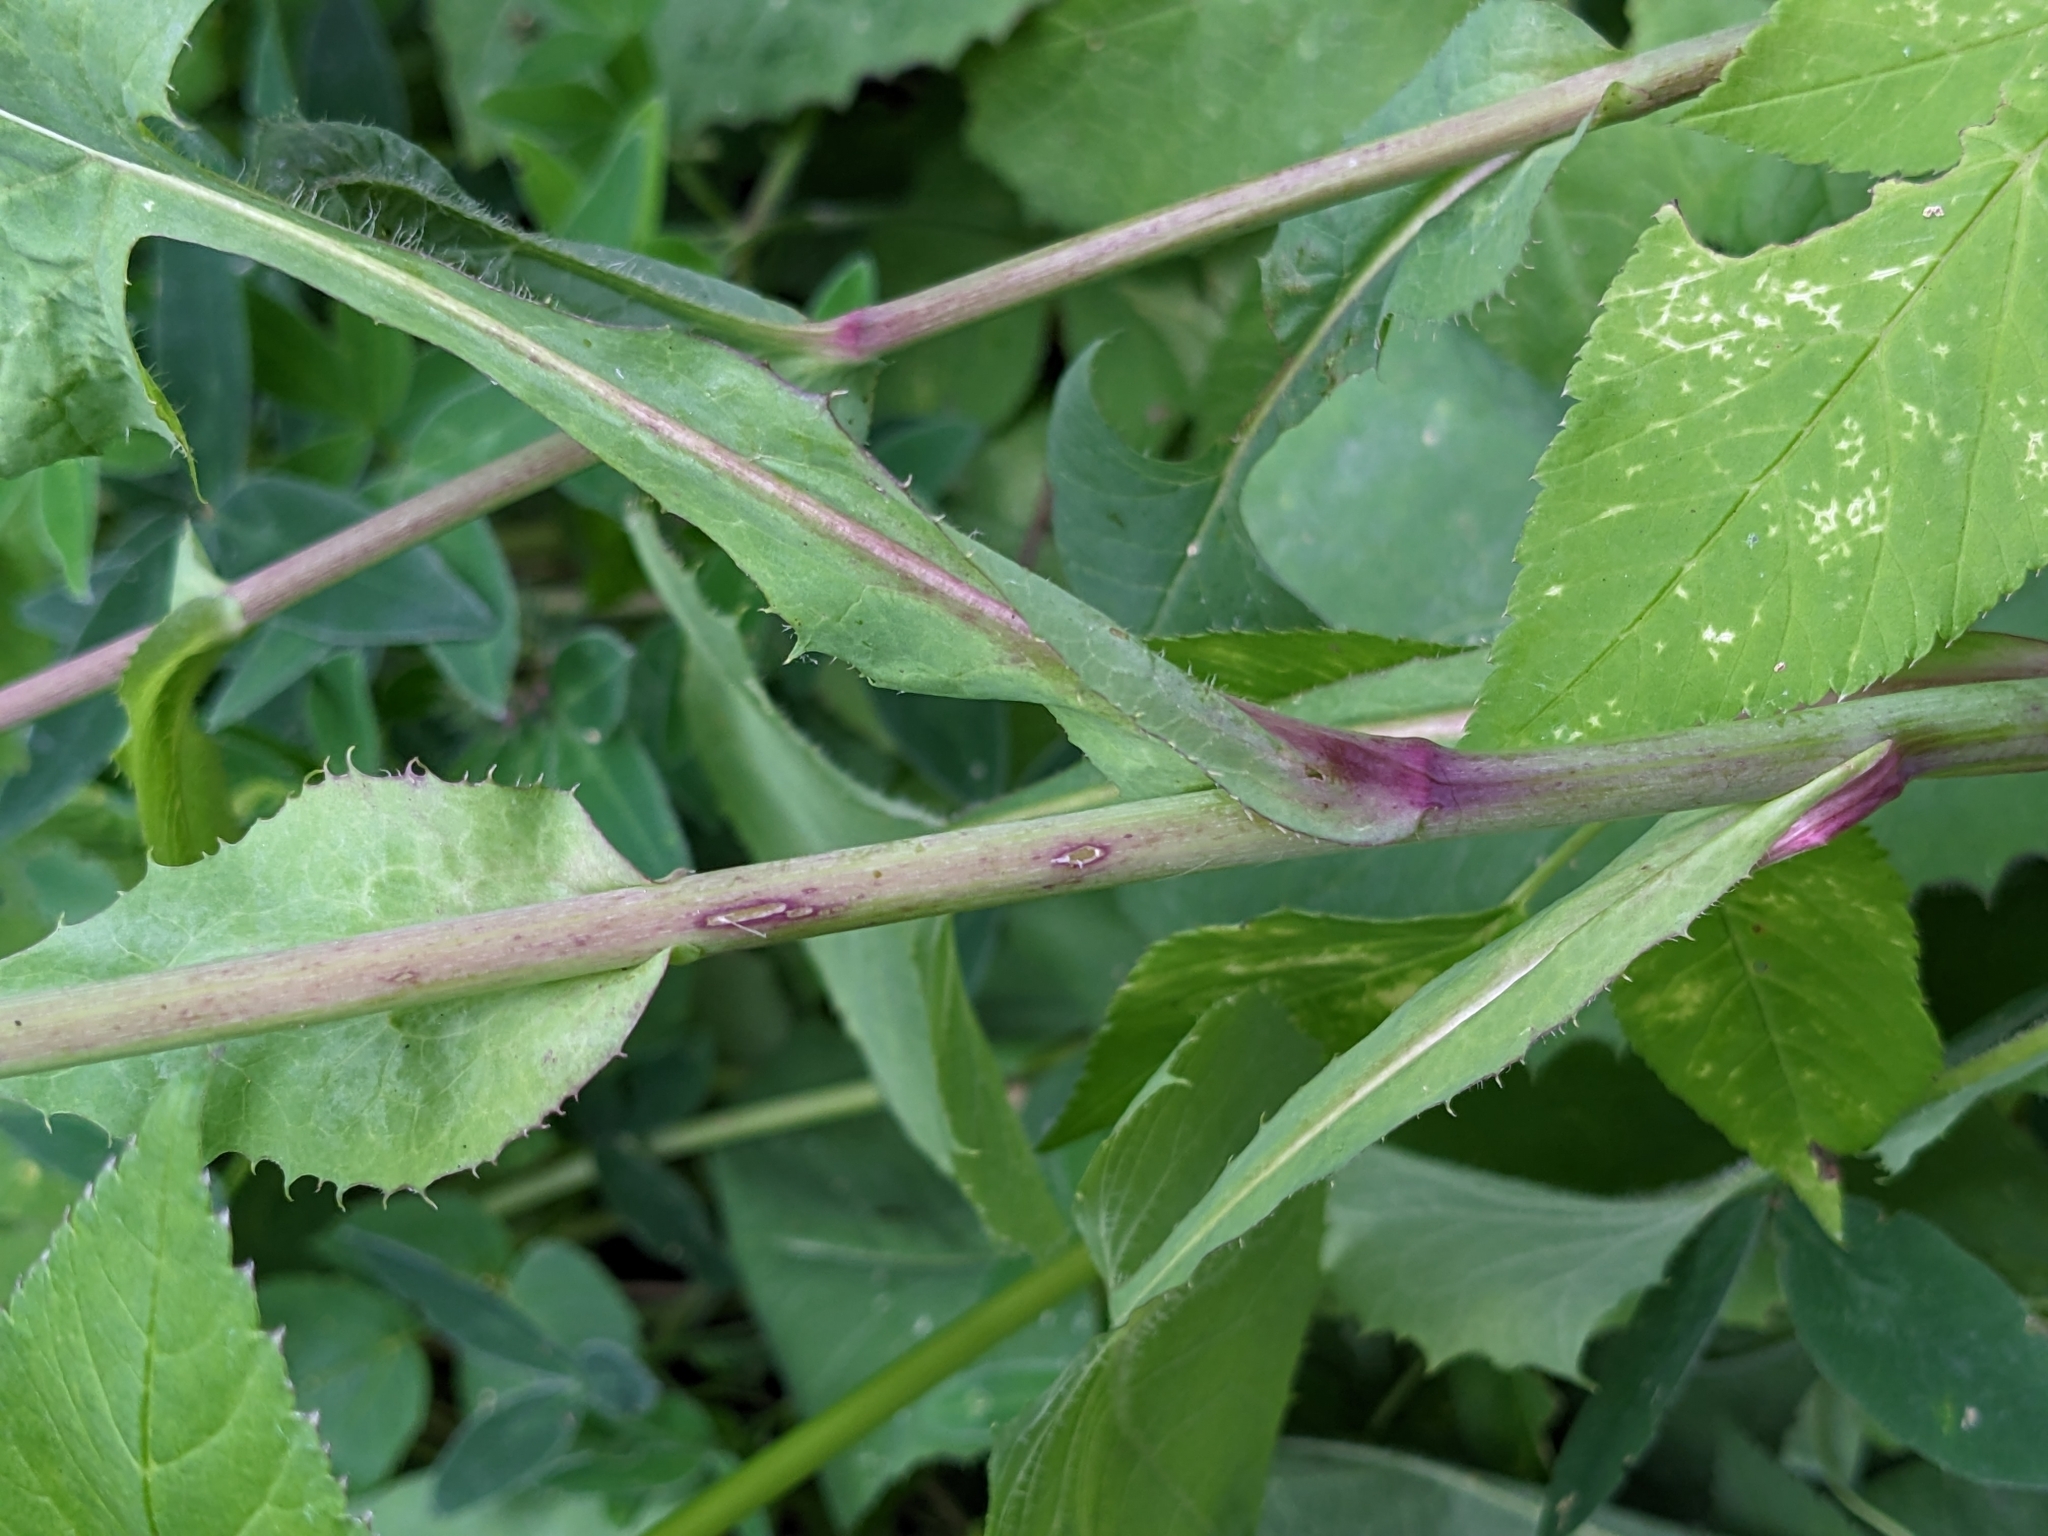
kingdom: Plantae
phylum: Tracheophyta
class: Magnoliopsida
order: Asterales
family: Asteraceae
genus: Lactuca
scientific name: Lactuca macrophylla
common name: Common blue-sow-thistle
